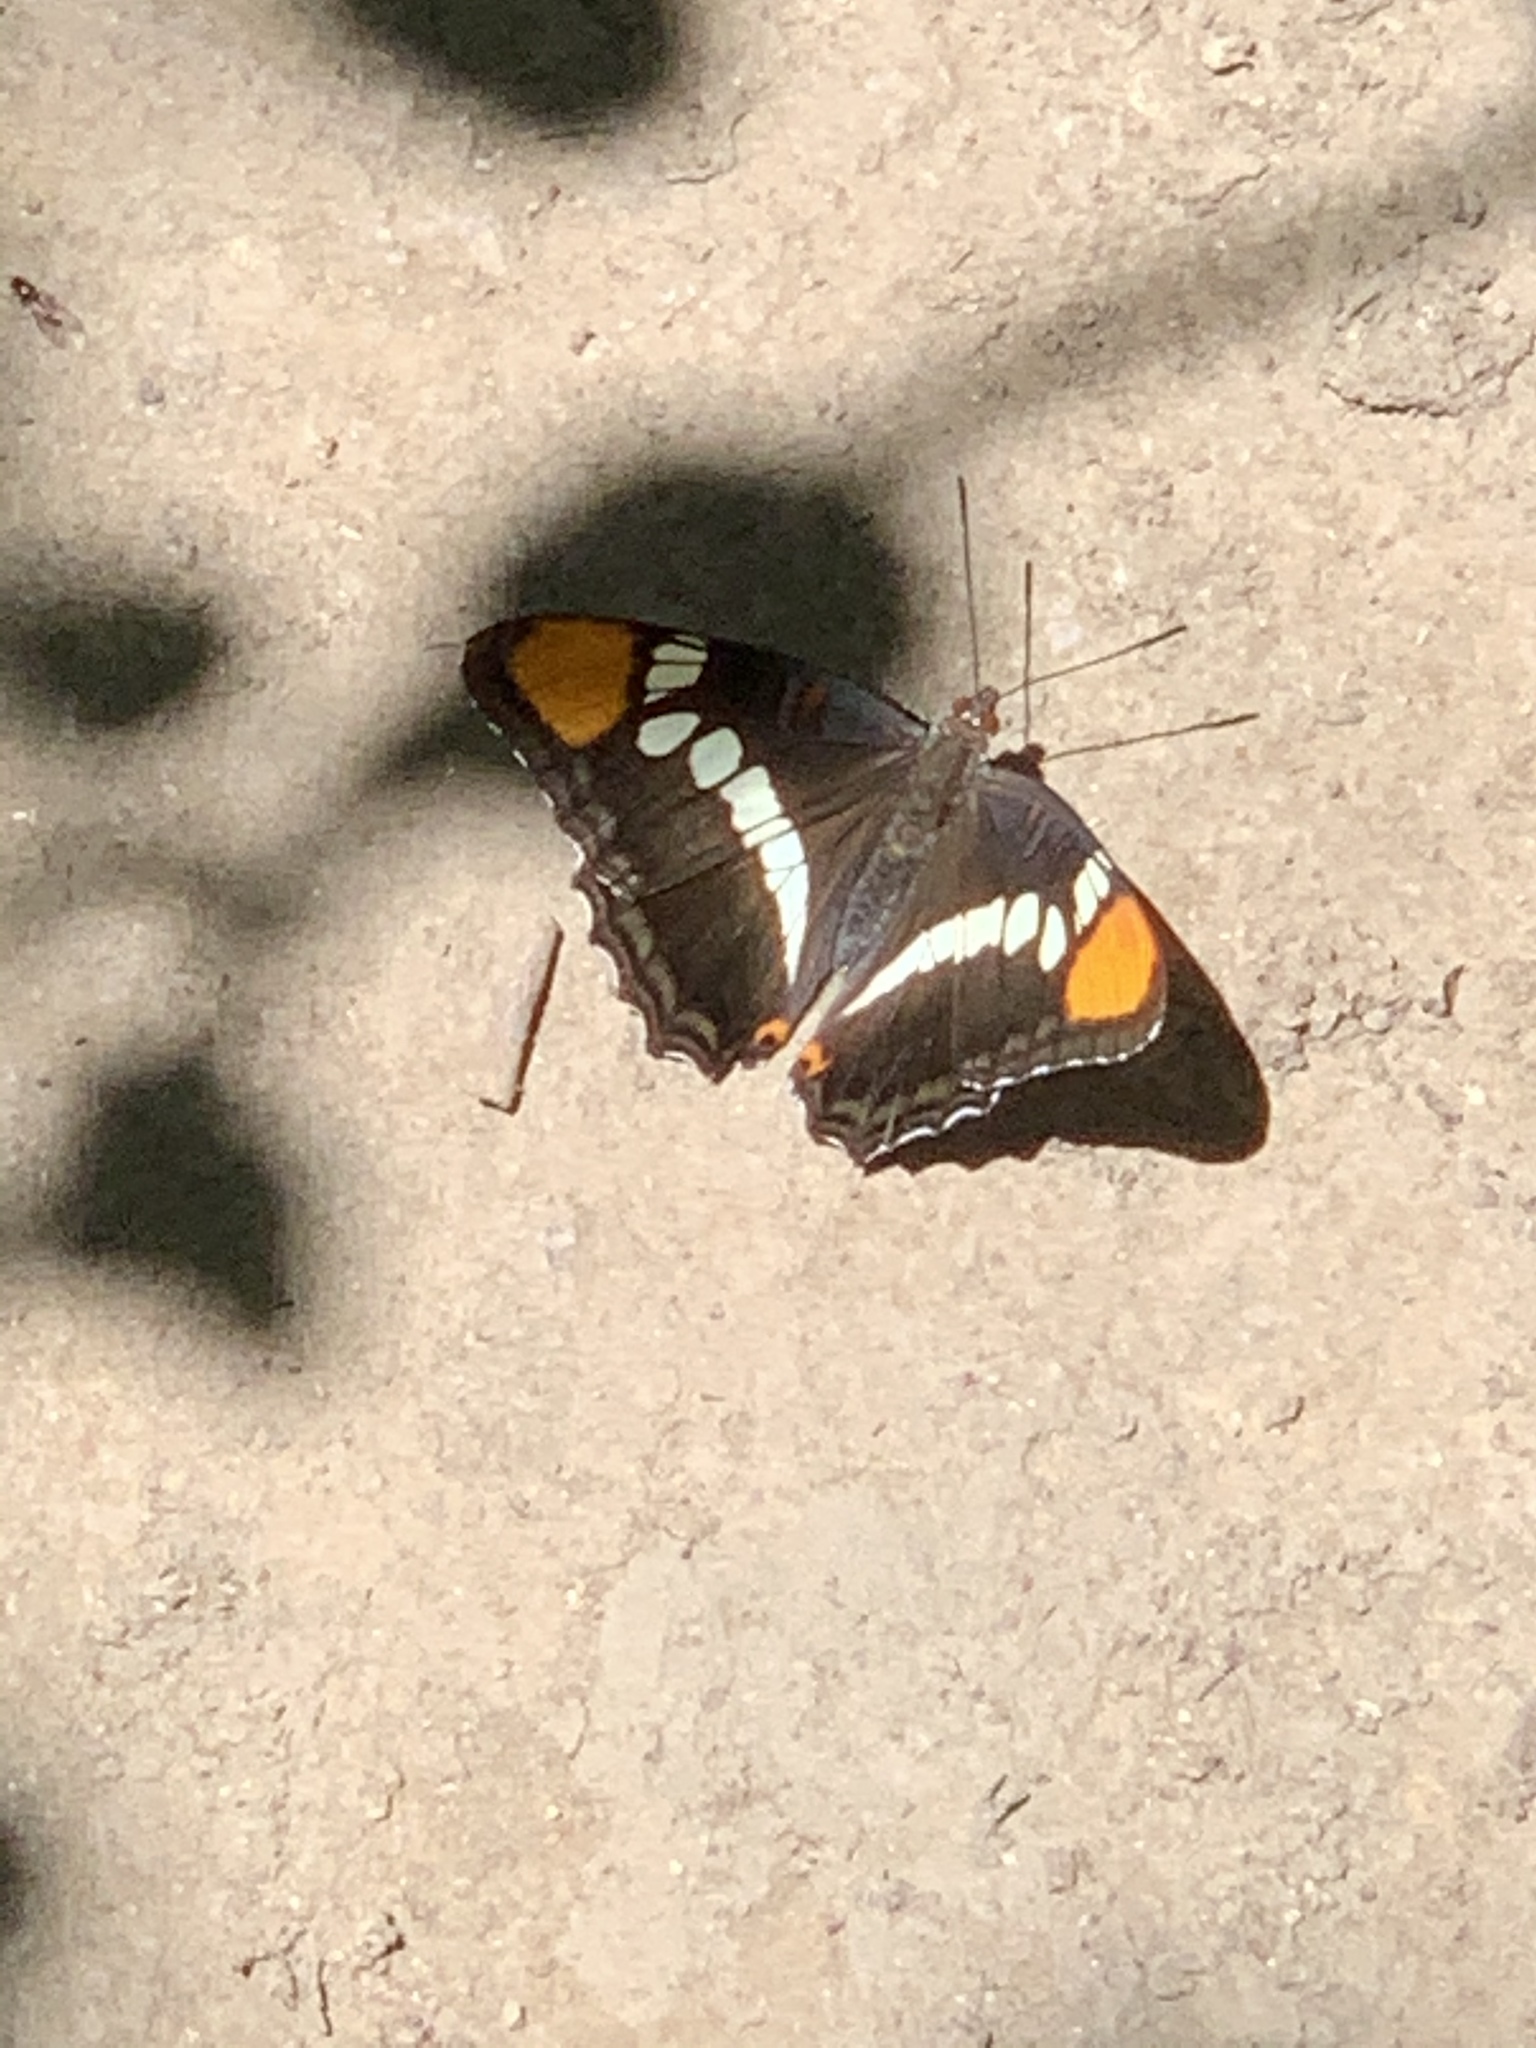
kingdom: Animalia
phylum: Arthropoda
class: Insecta
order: Lepidoptera
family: Nymphalidae
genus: Limenitis
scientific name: Limenitis bredowii
